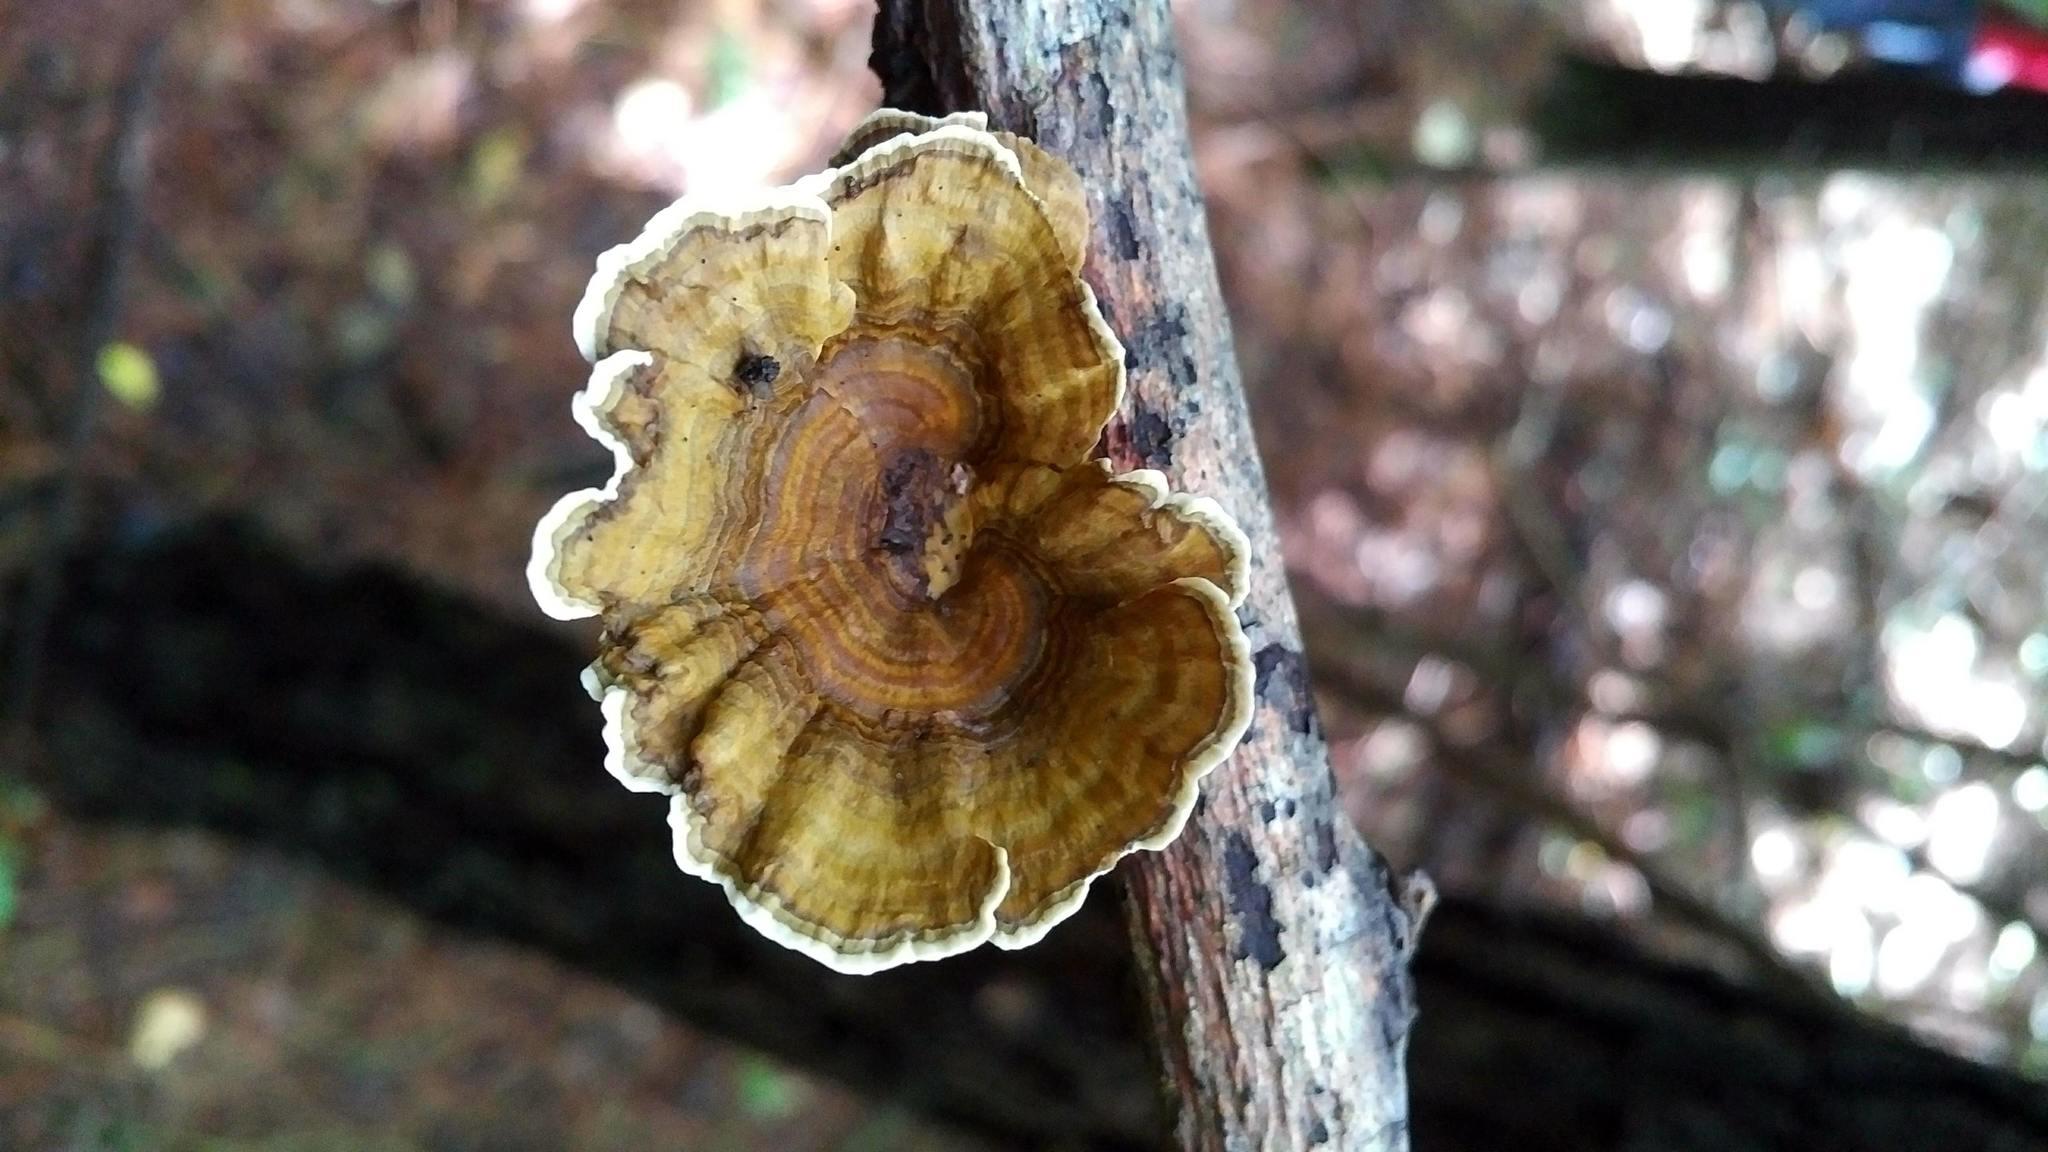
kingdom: Fungi
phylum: Basidiomycota
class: Agaricomycetes
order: Polyporales
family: Polyporaceae
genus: Daedaleopsis
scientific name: Daedaleopsis confragosa
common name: Blushing bracket
